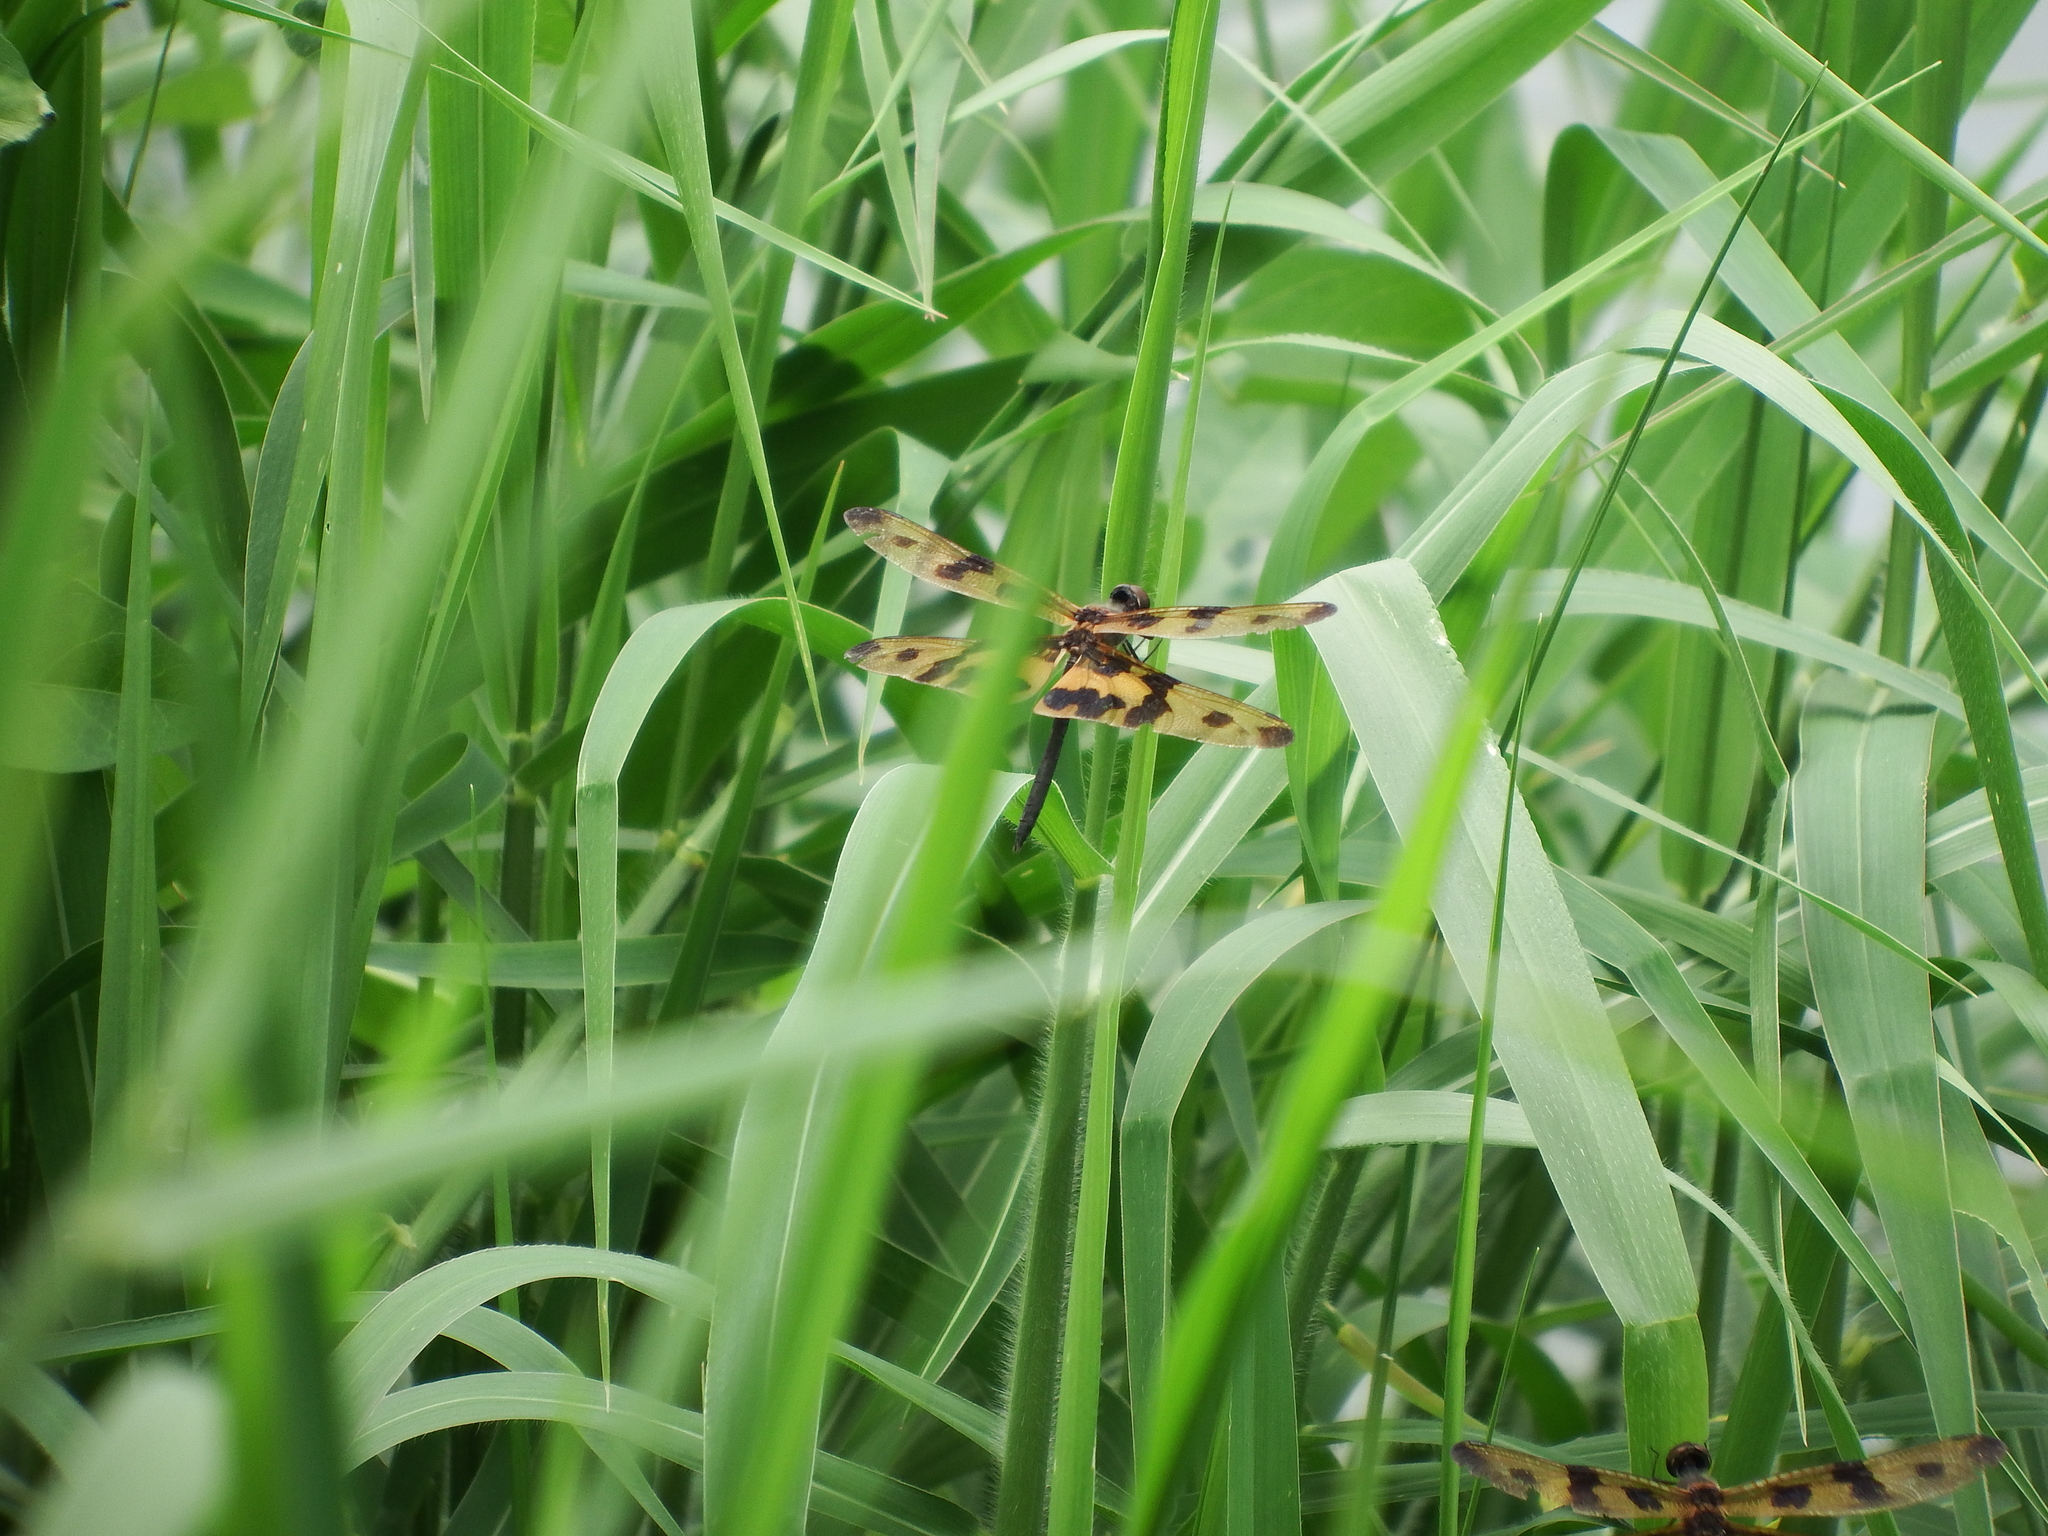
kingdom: Animalia
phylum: Arthropoda
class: Insecta
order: Odonata
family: Libellulidae
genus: Rhyothemis
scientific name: Rhyothemis variegata
